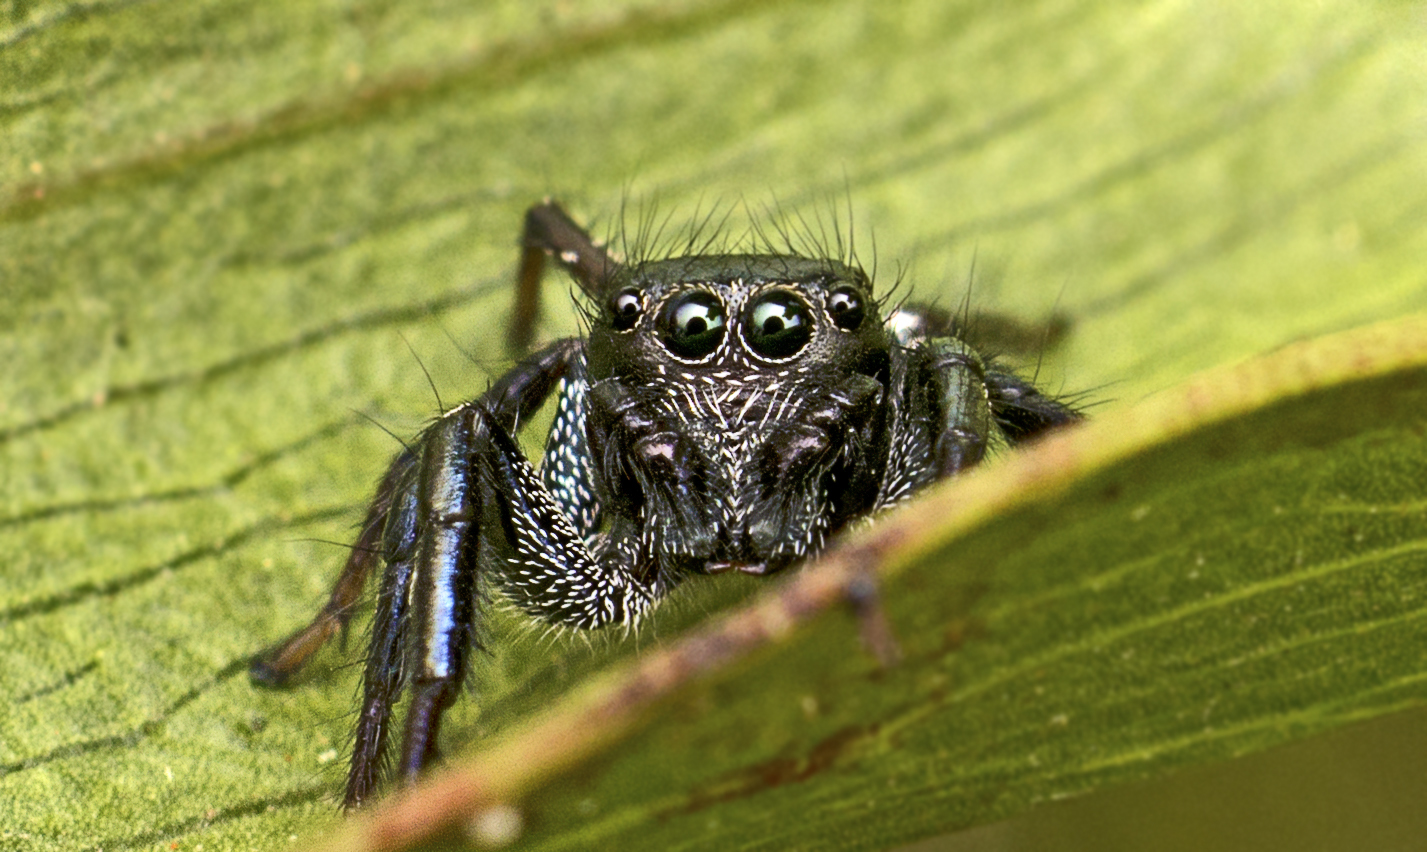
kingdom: Animalia
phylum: Arthropoda
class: Arachnida
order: Araneae
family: Salticidae
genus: Zenodorus
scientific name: Zenodorus orbiculatus
